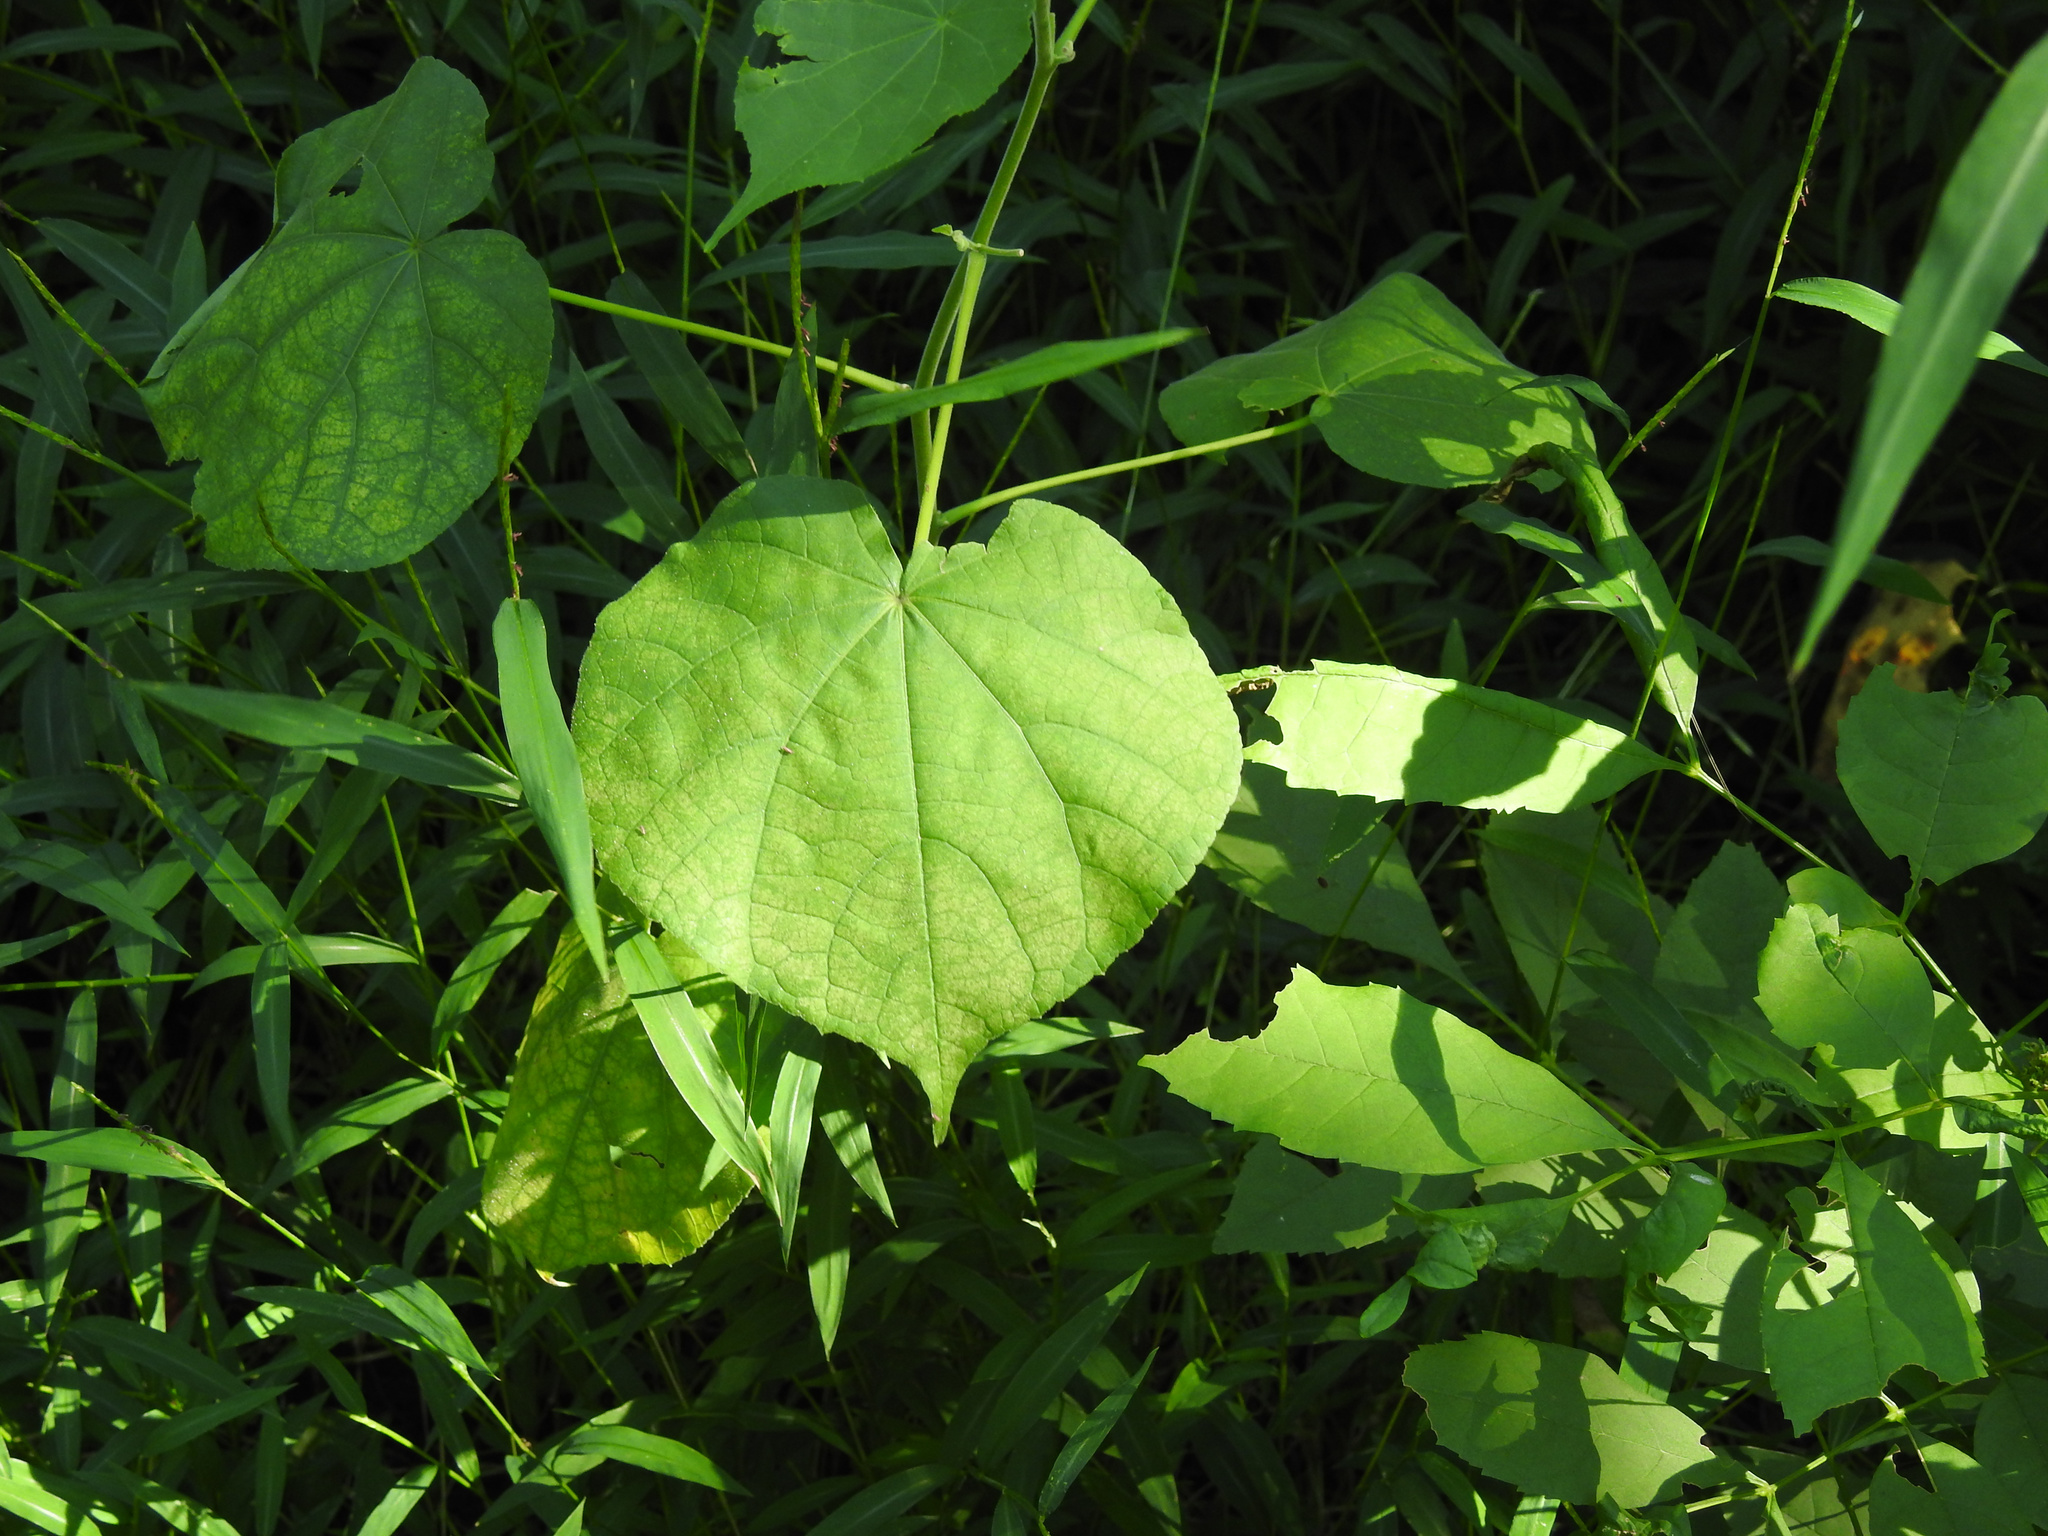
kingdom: Plantae
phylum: Tracheophyta
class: Magnoliopsida
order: Malvales
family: Malvaceae
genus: Abutilon
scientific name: Abutilon theophrasti
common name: Velvetleaf
